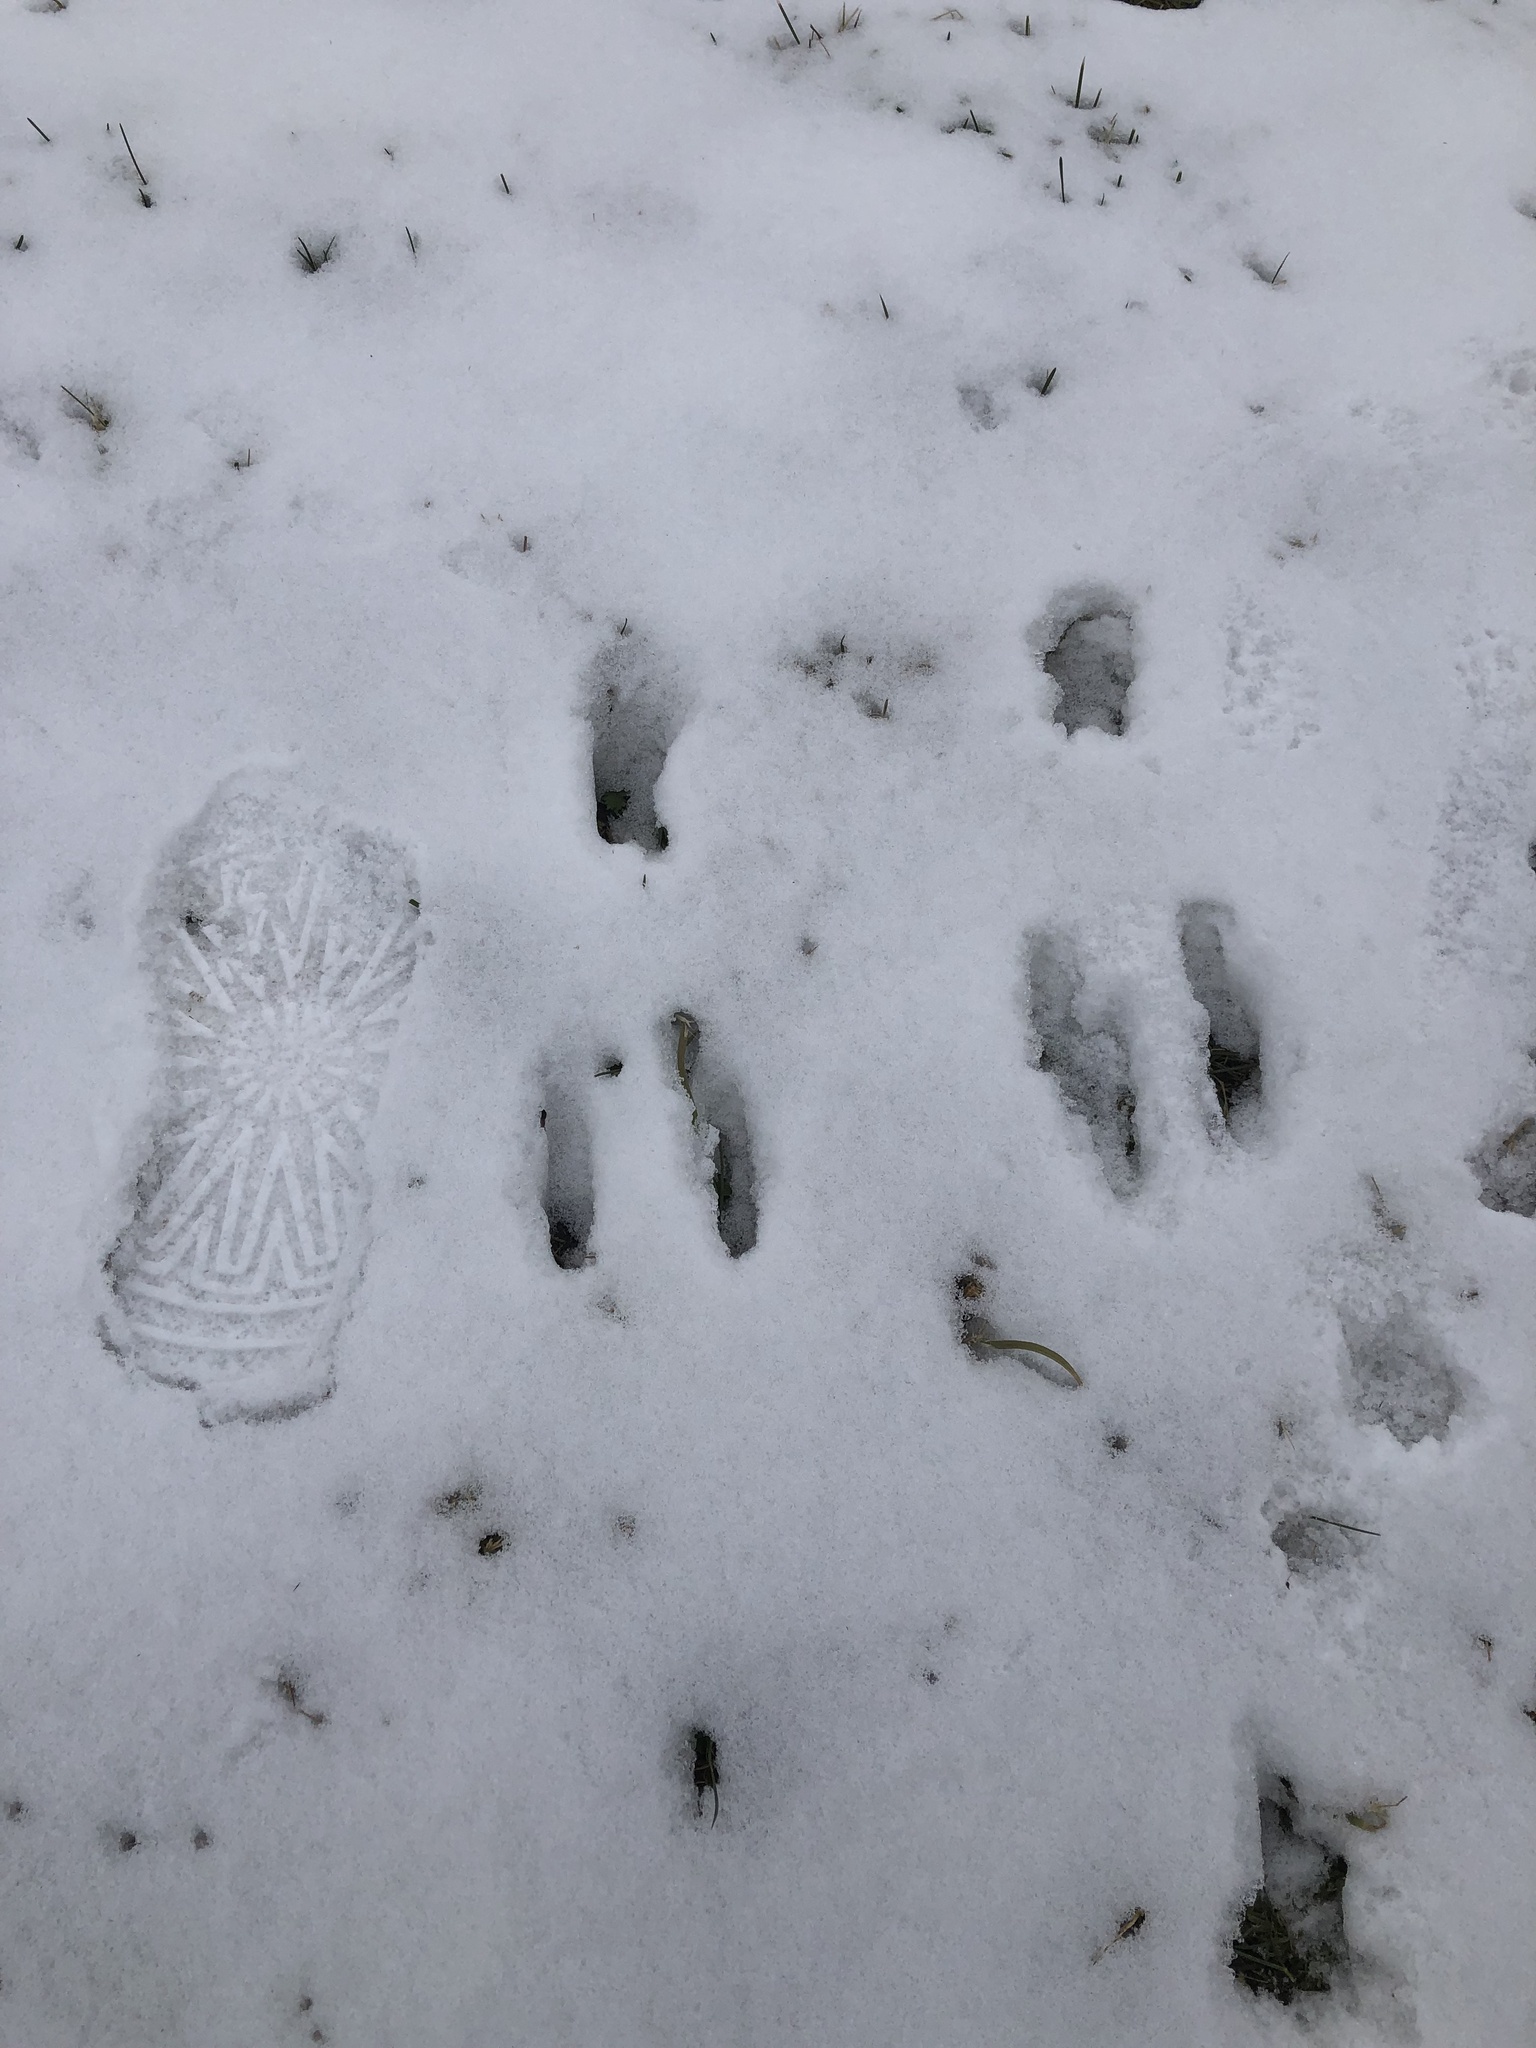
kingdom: Animalia
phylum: Chordata
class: Mammalia
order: Lagomorpha
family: Leporidae
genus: Sylvilagus
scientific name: Sylvilagus floridanus
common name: Eastern cottontail
